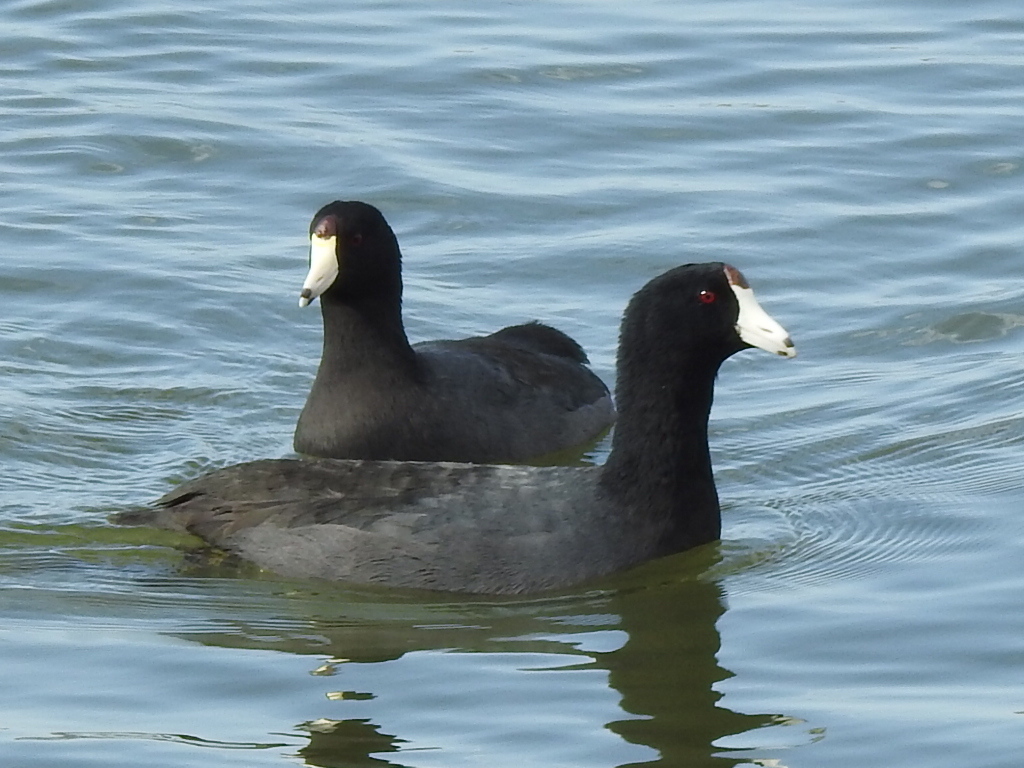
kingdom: Animalia
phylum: Chordata
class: Aves
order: Gruiformes
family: Rallidae
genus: Fulica
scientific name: Fulica americana
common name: American coot
